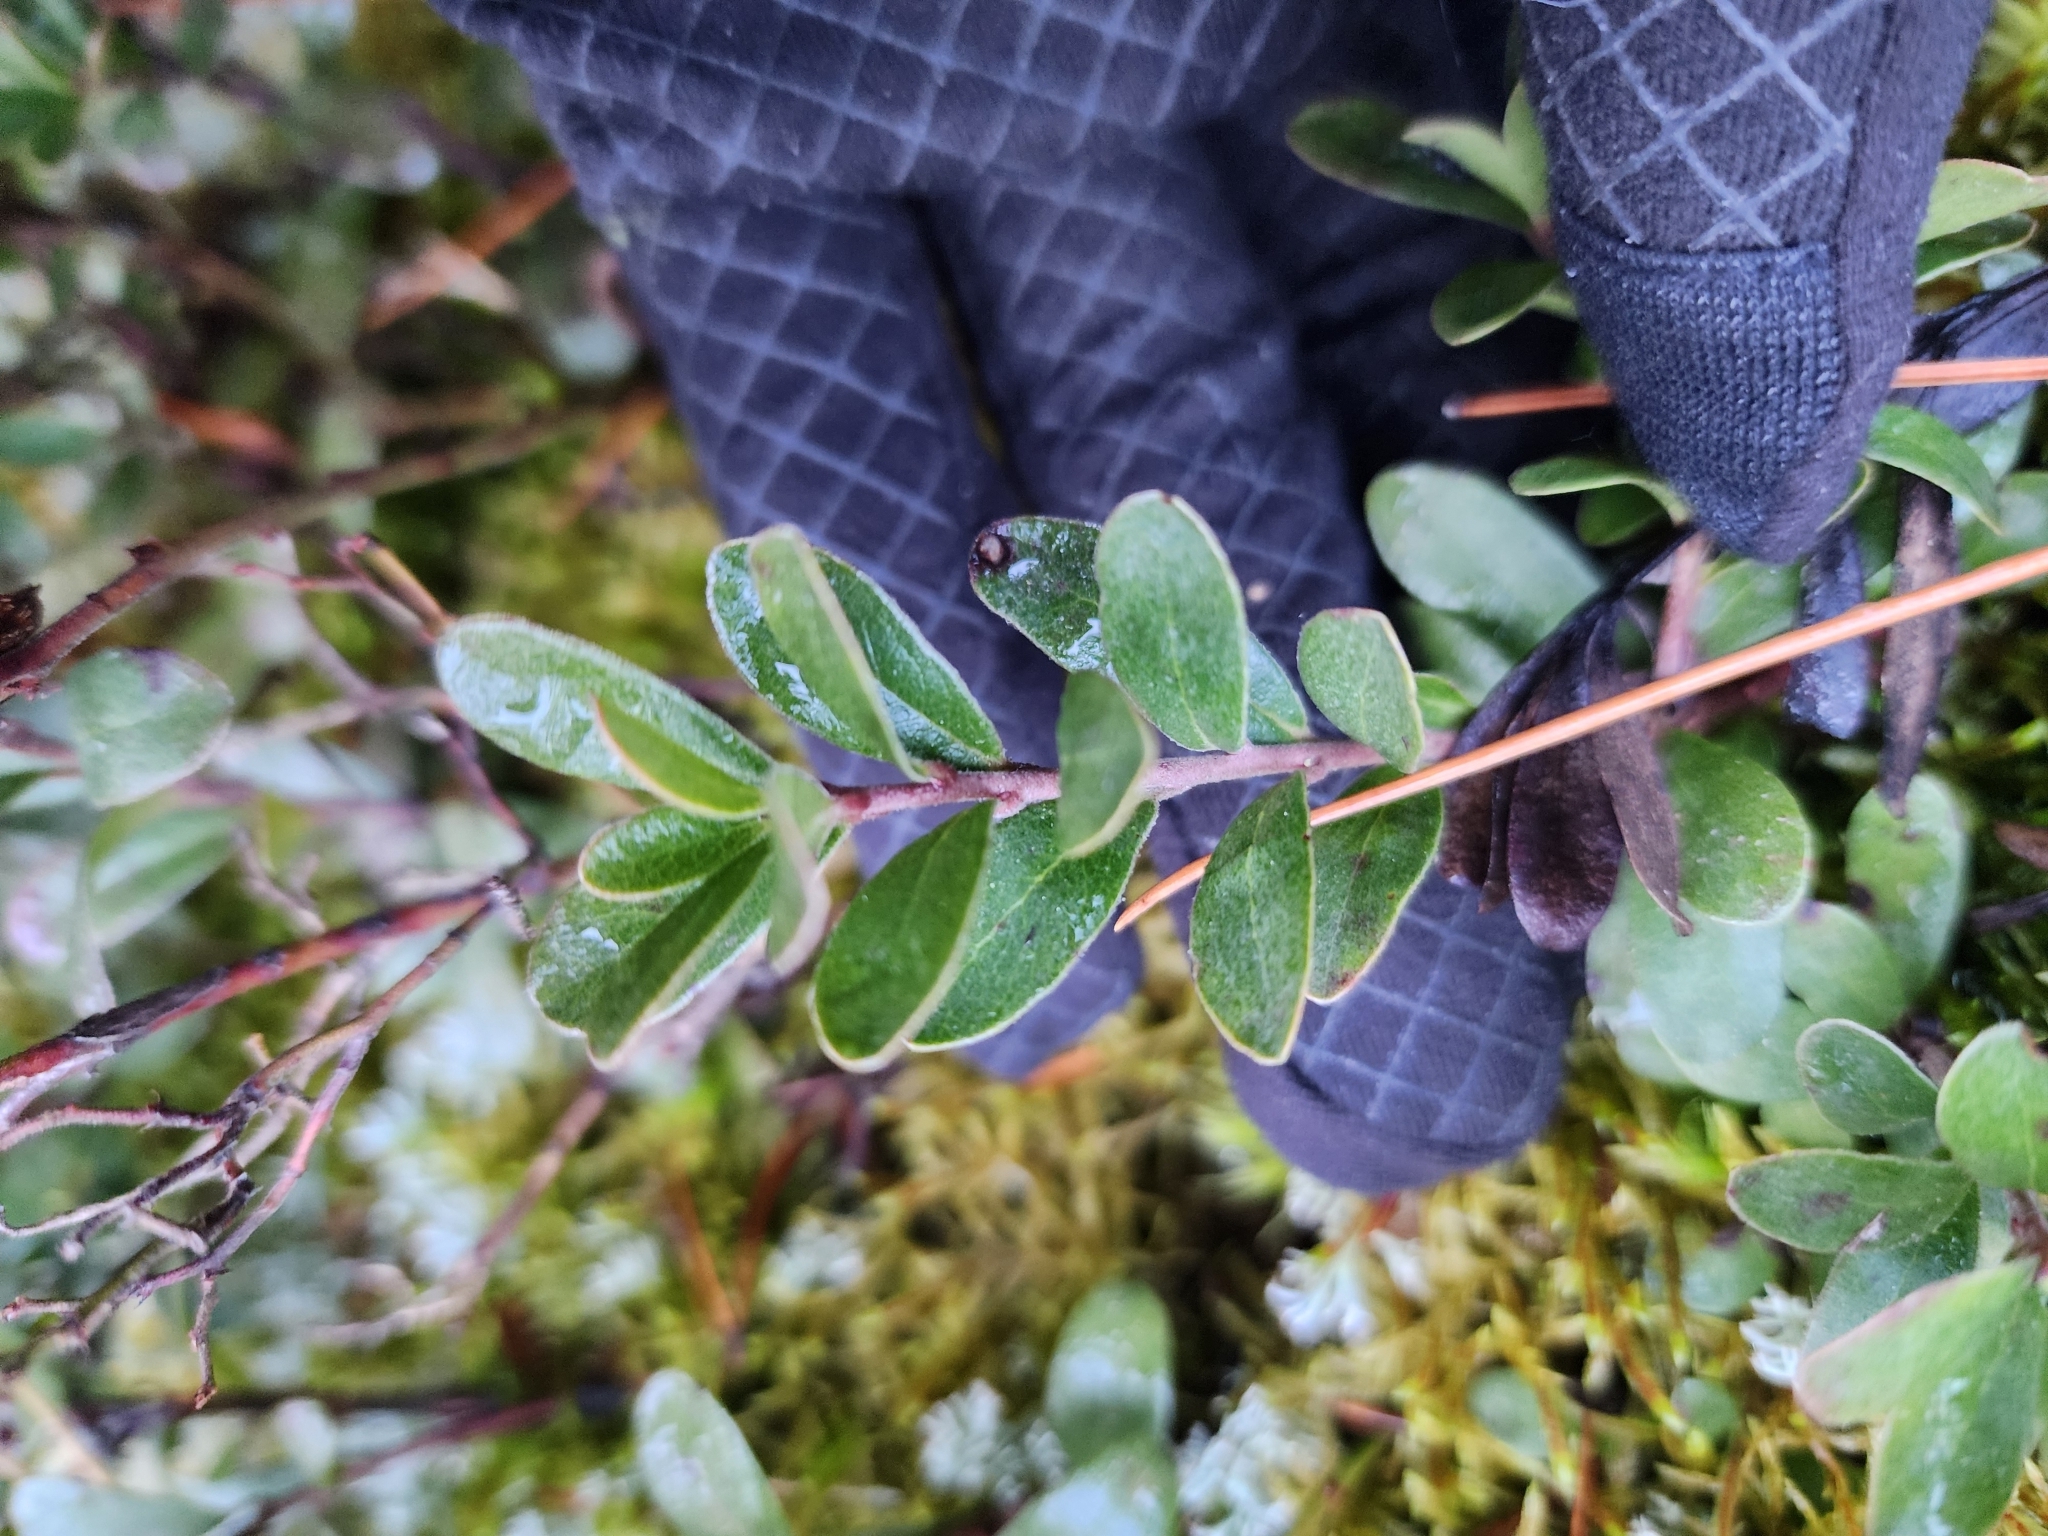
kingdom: Plantae
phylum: Tracheophyta
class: Magnoliopsida
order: Ericales
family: Ericaceae
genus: Arctostaphylos
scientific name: Arctostaphylos uva-ursi
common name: Bearberry
